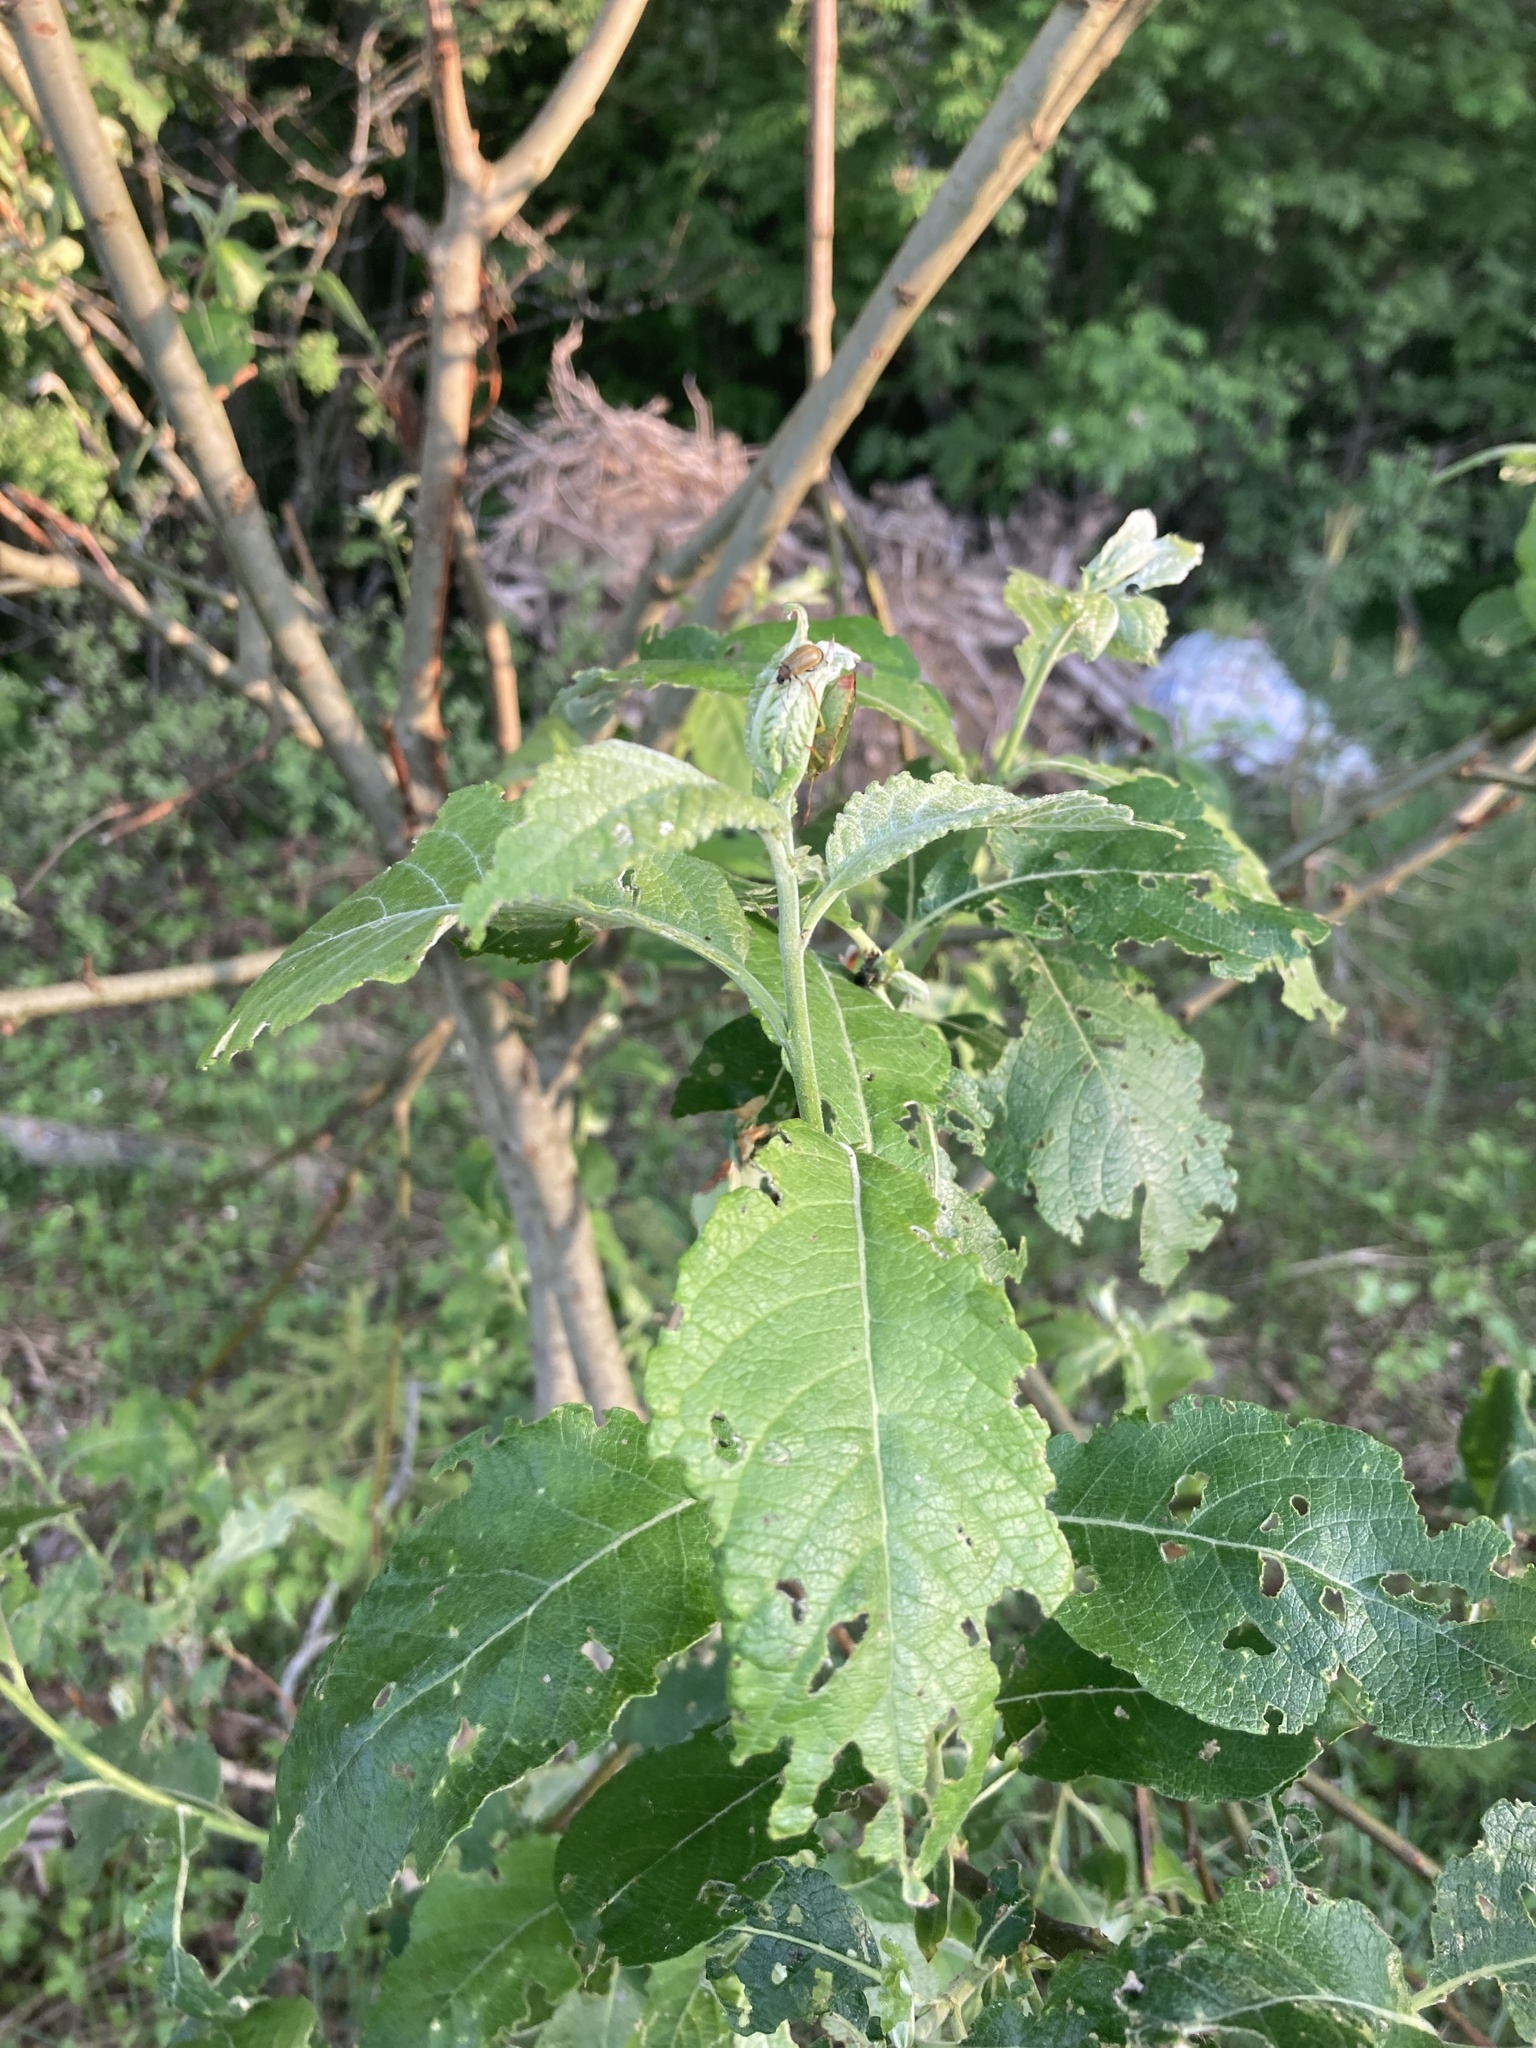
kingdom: Plantae
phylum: Tracheophyta
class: Magnoliopsida
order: Malpighiales
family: Salicaceae
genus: Salix
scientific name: Salix caprea
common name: Goat willow
